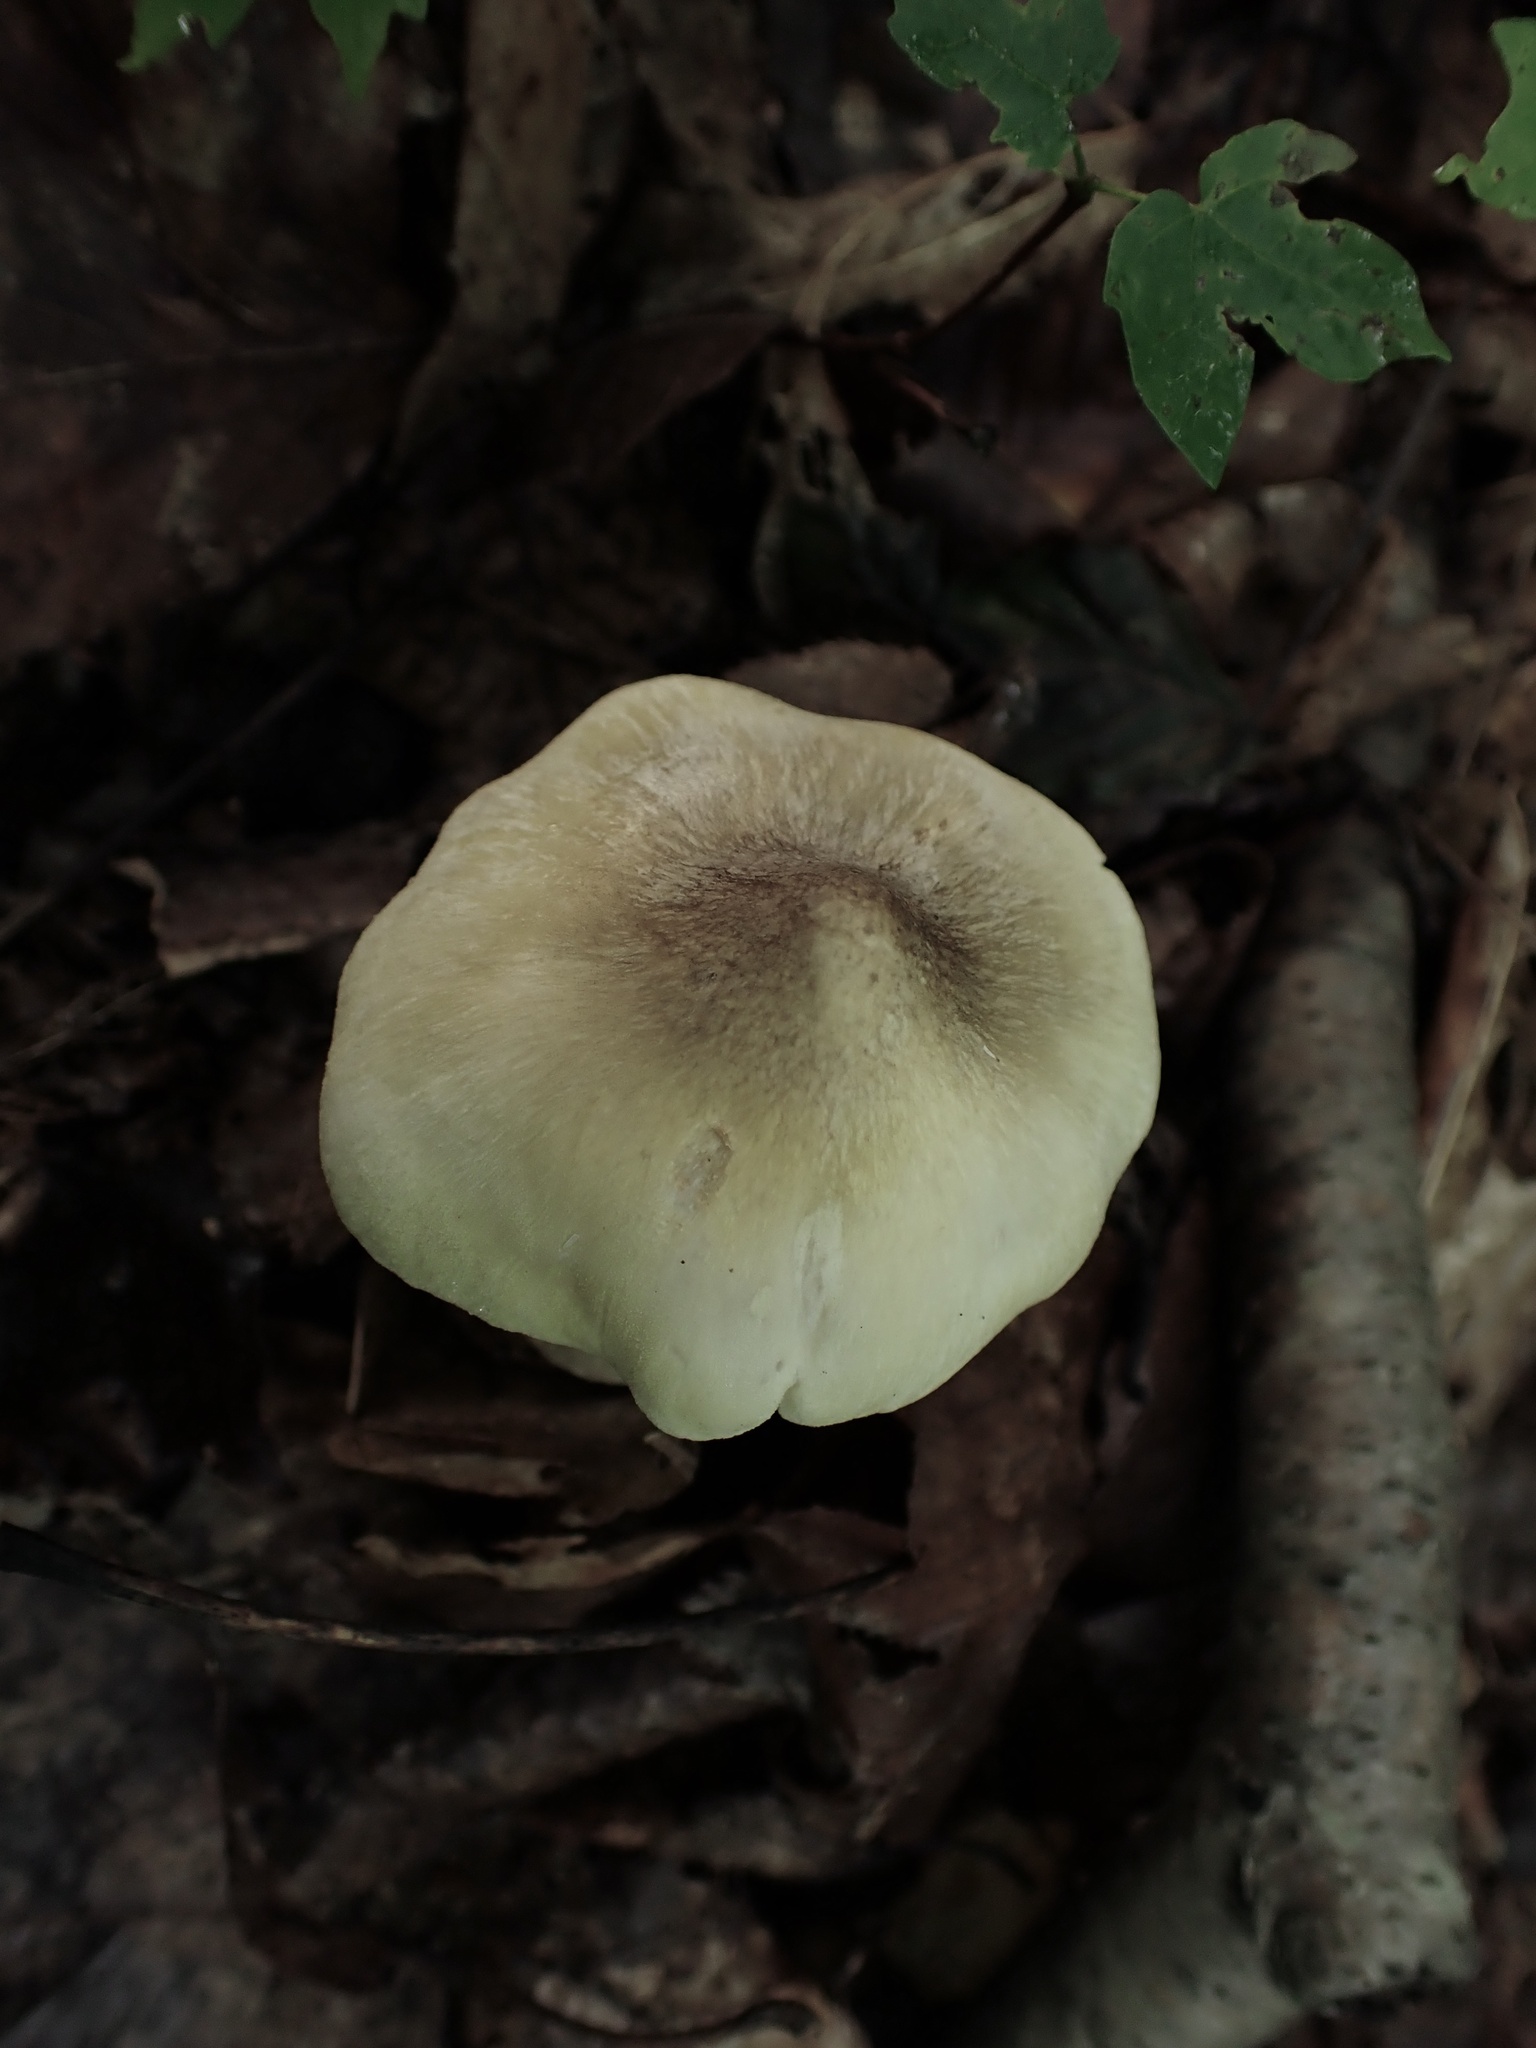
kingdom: Fungi
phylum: Basidiomycota
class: Agaricomycetes
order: Agaricales
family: Tricholomataceae
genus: Tricholoma
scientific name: Tricholoma sejunctum
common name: Deceiving knight
